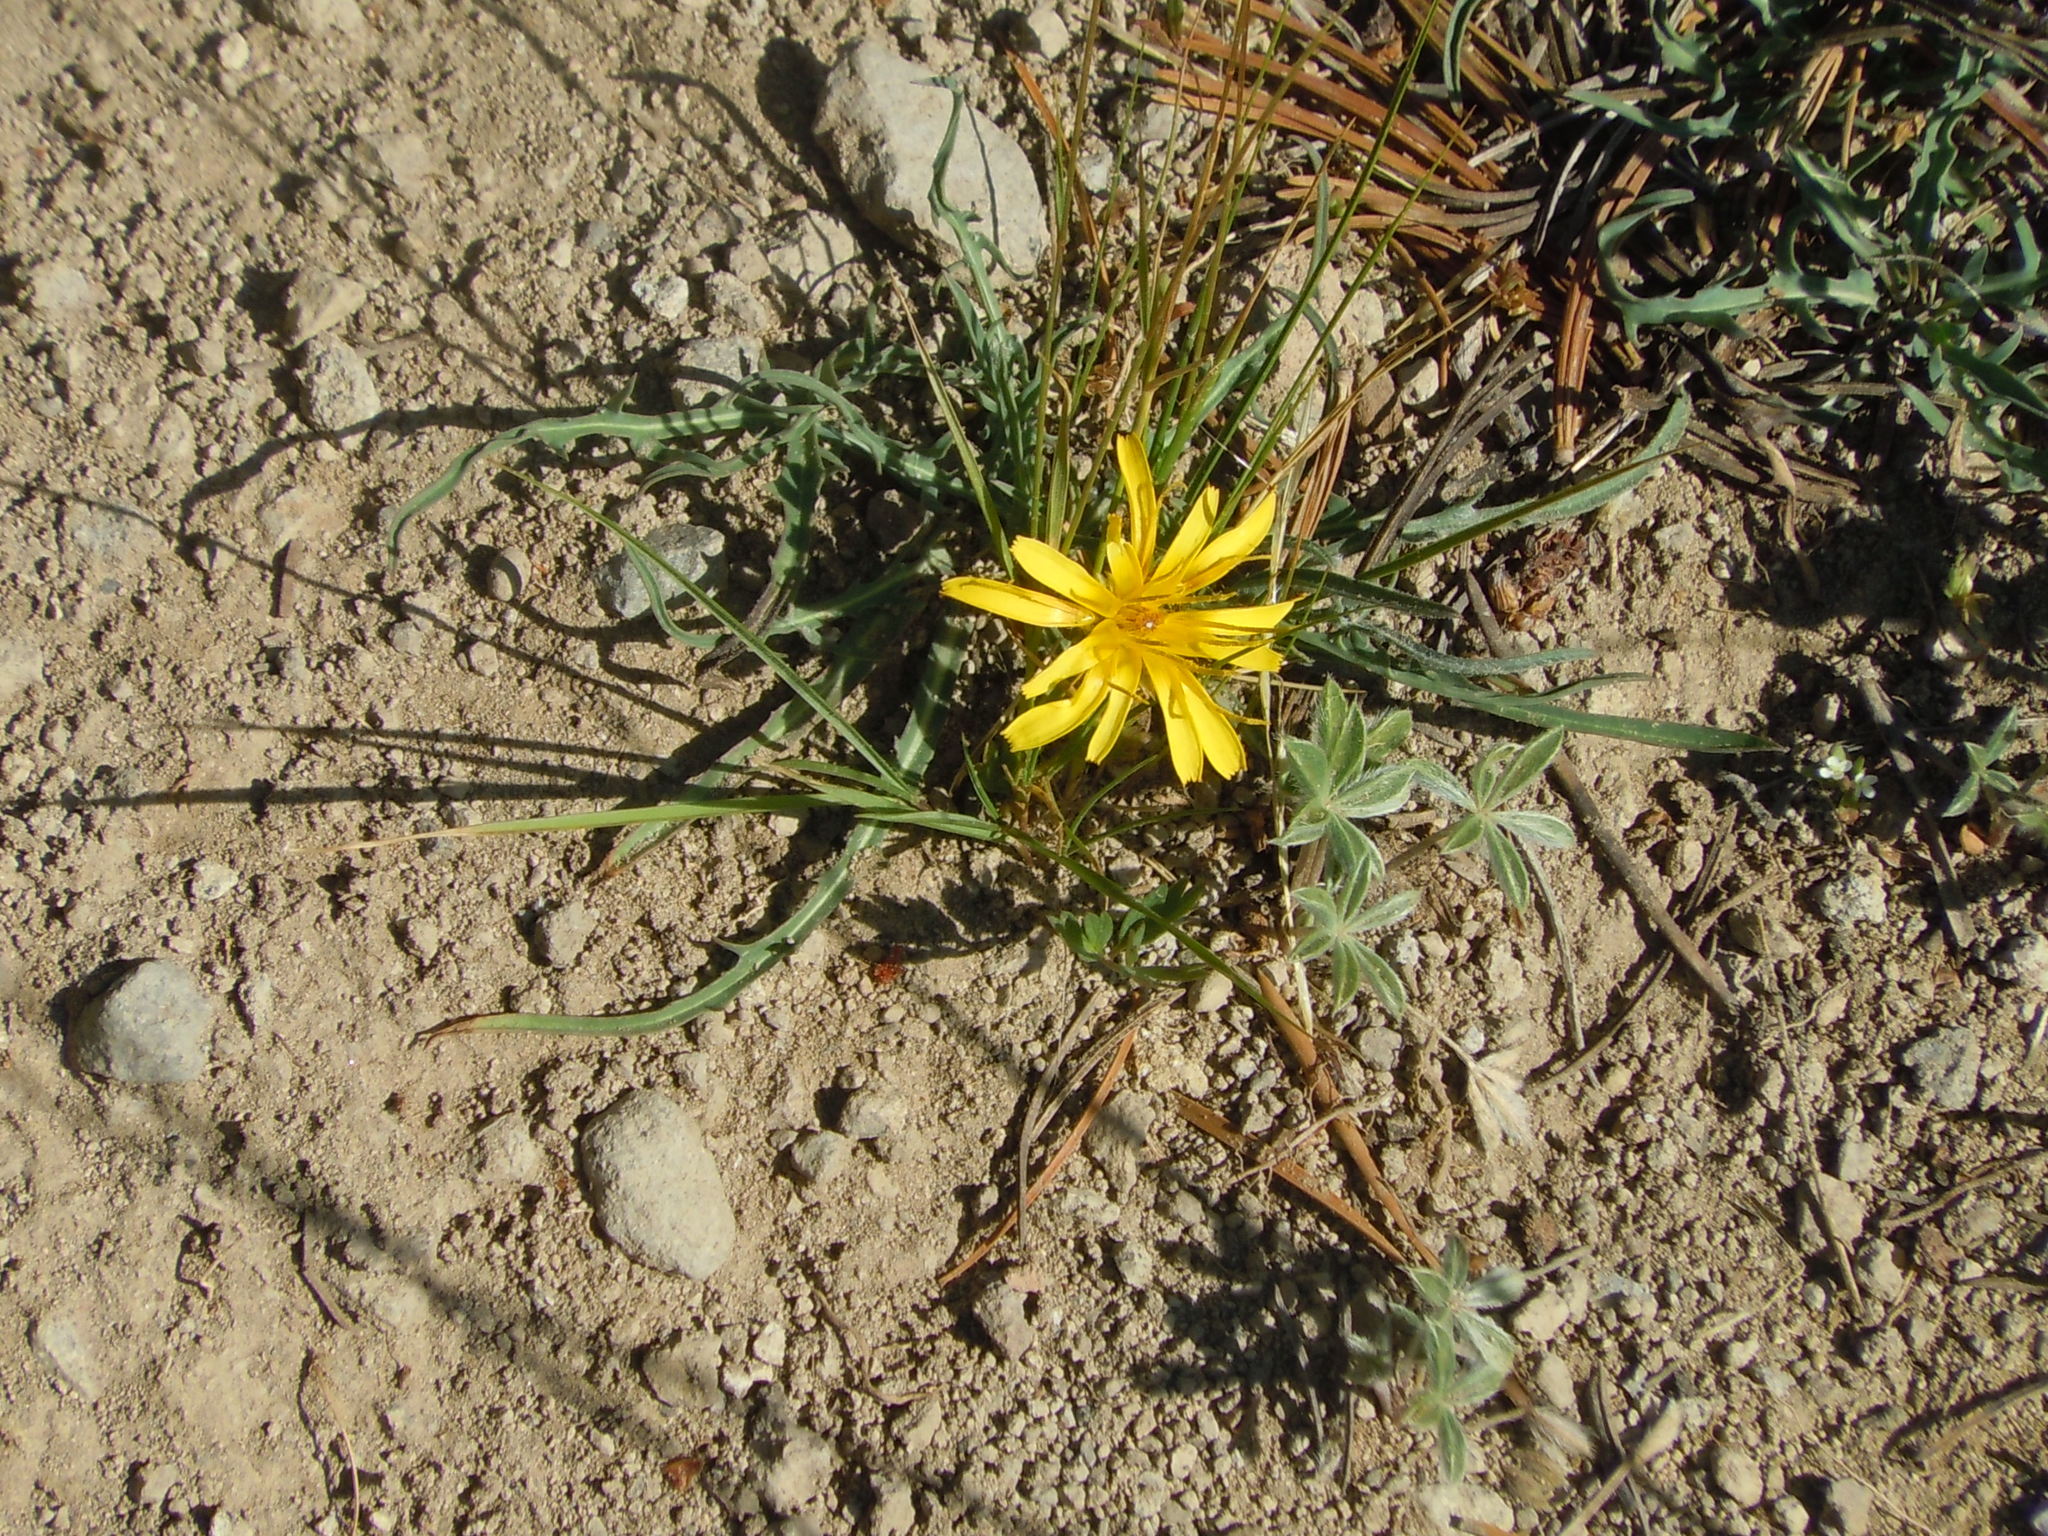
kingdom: Plantae
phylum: Tracheophyta
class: Magnoliopsida
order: Asterales
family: Asteraceae
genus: Agoseris
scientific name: Agoseris parviflora
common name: Steppe agoseris
